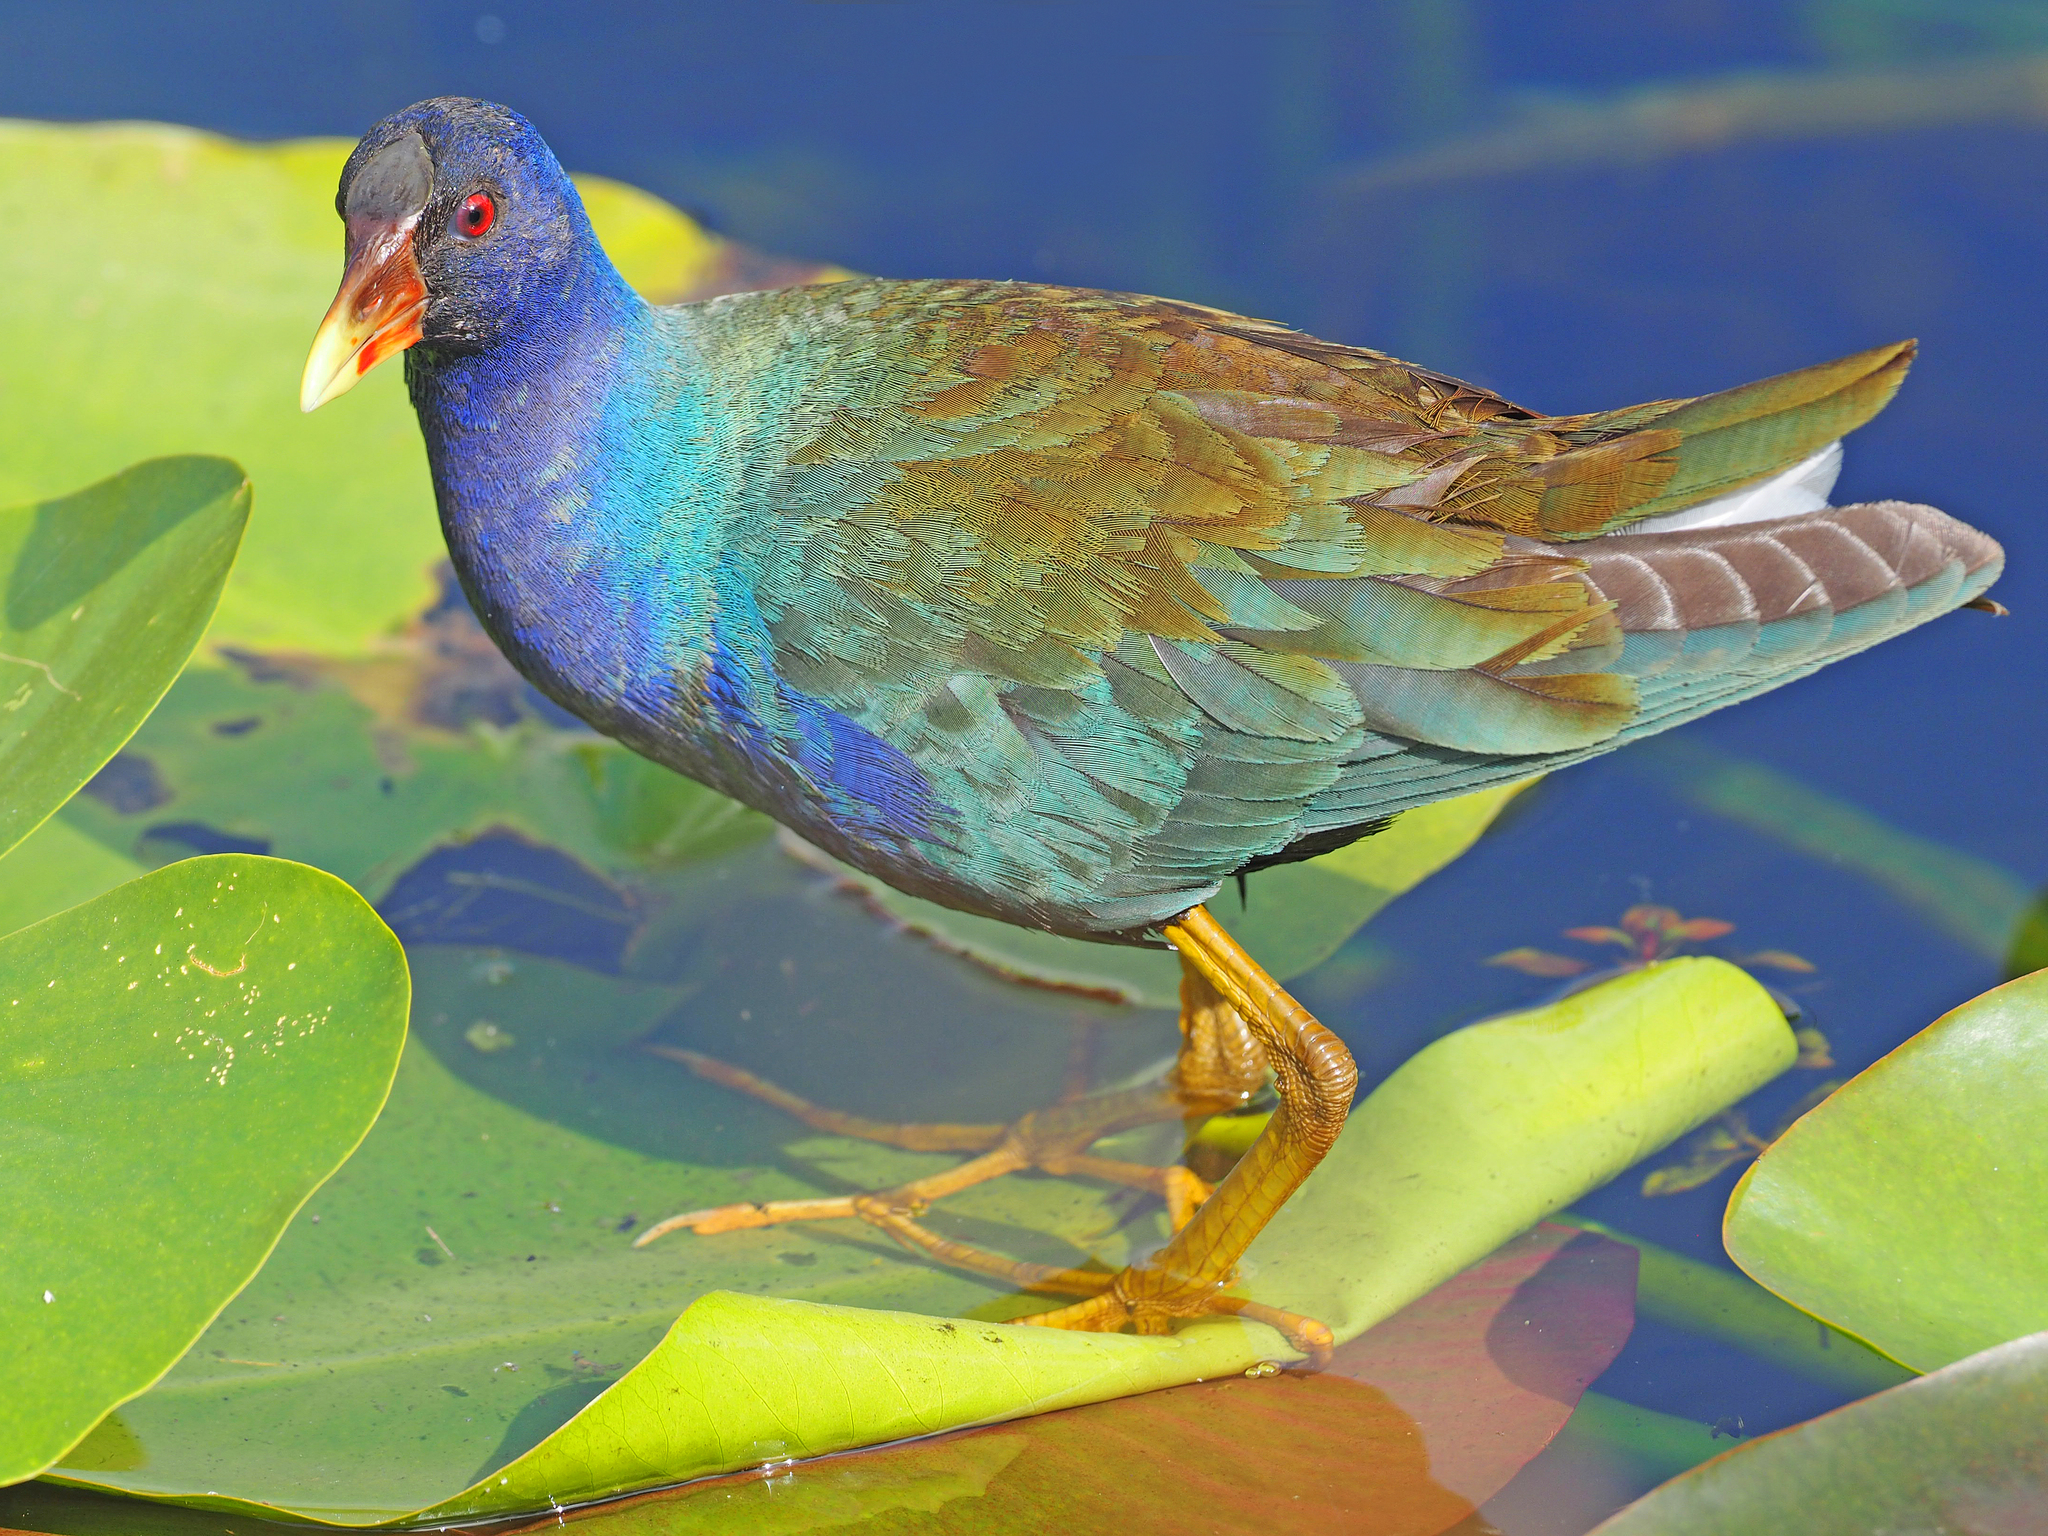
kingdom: Animalia
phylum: Chordata
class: Aves
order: Gruiformes
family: Rallidae
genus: Porphyrio
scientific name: Porphyrio martinica
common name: Purple gallinule
